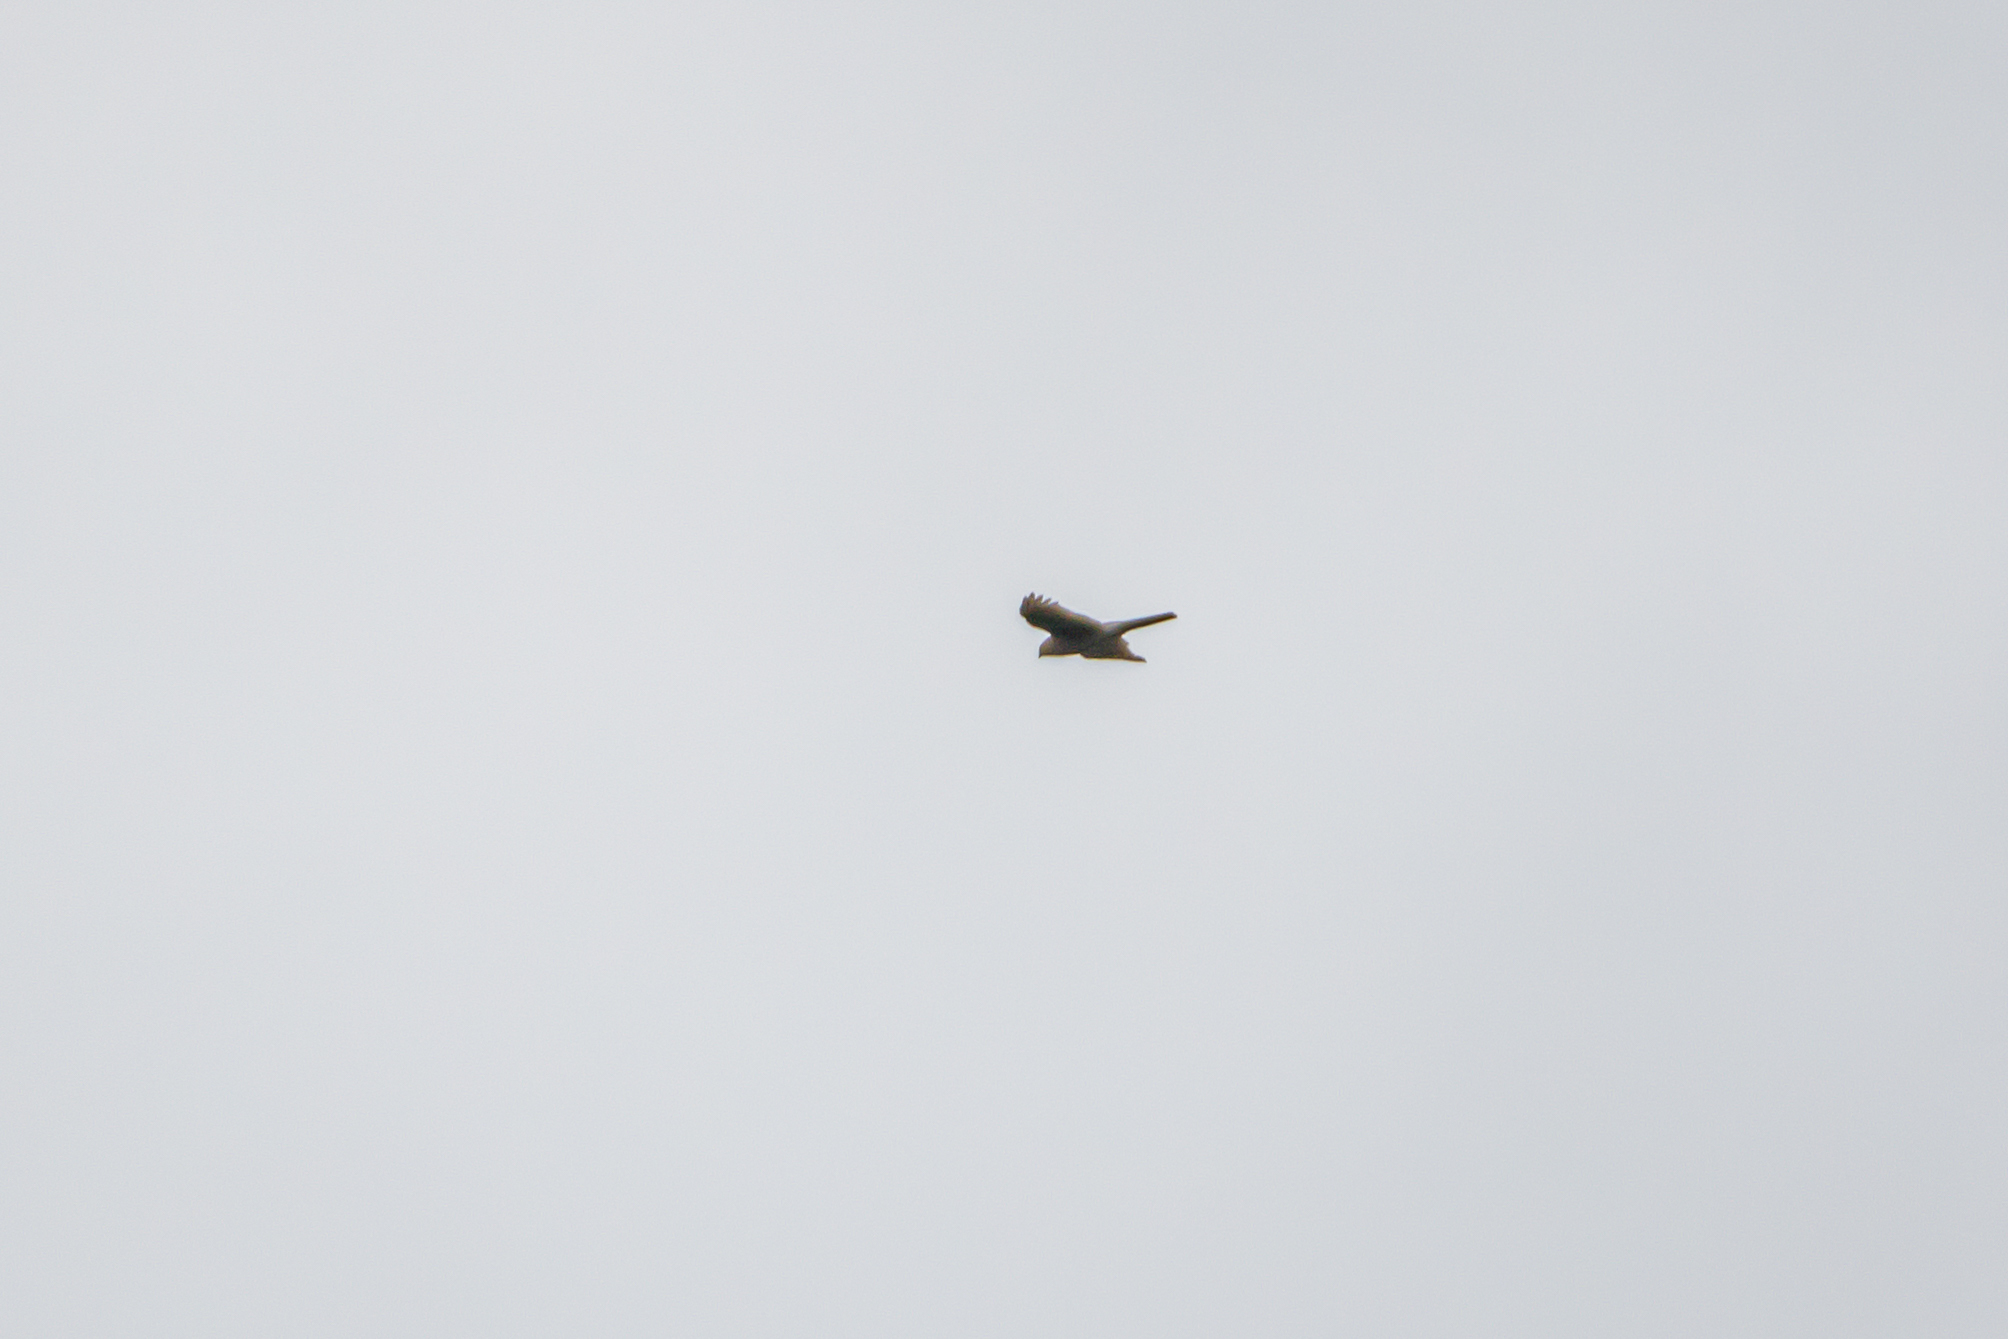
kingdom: Animalia
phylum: Chordata
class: Aves
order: Accipitriformes
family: Accipitridae
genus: Accipiter
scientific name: Accipiter nisus
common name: Eurasian sparrowhawk
